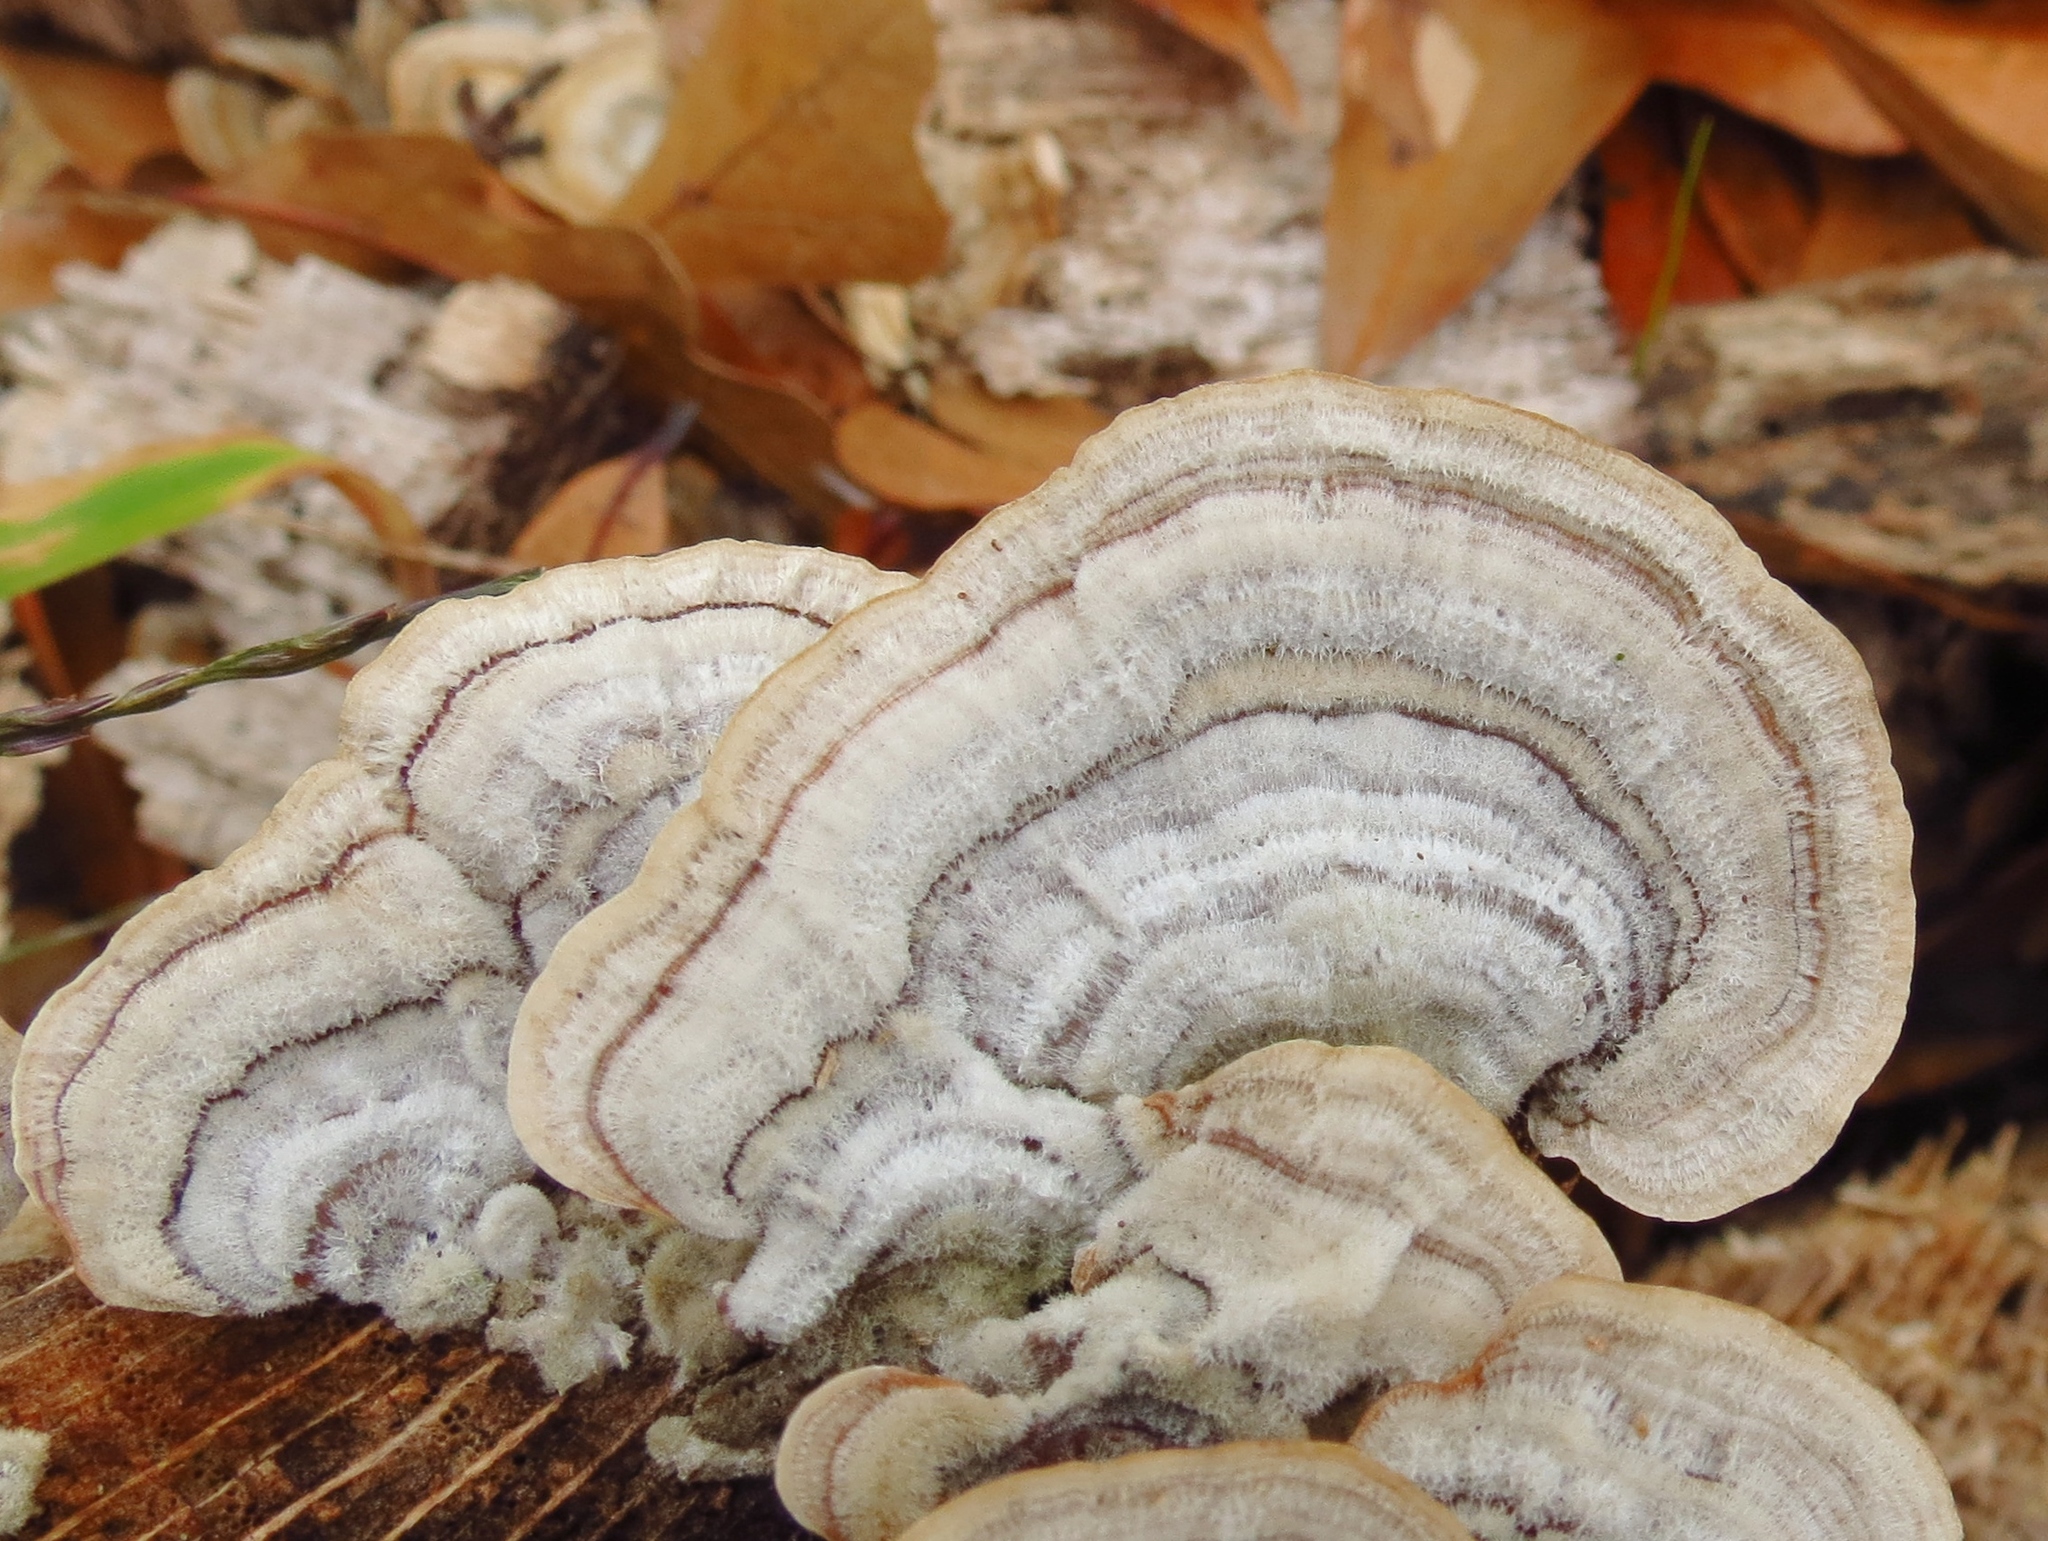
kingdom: Fungi
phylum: Basidiomycota
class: Agaricomycetes
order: Russulales
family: Stereaceae
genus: Stereum
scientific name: Stereum ostrea
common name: False turkeytail
